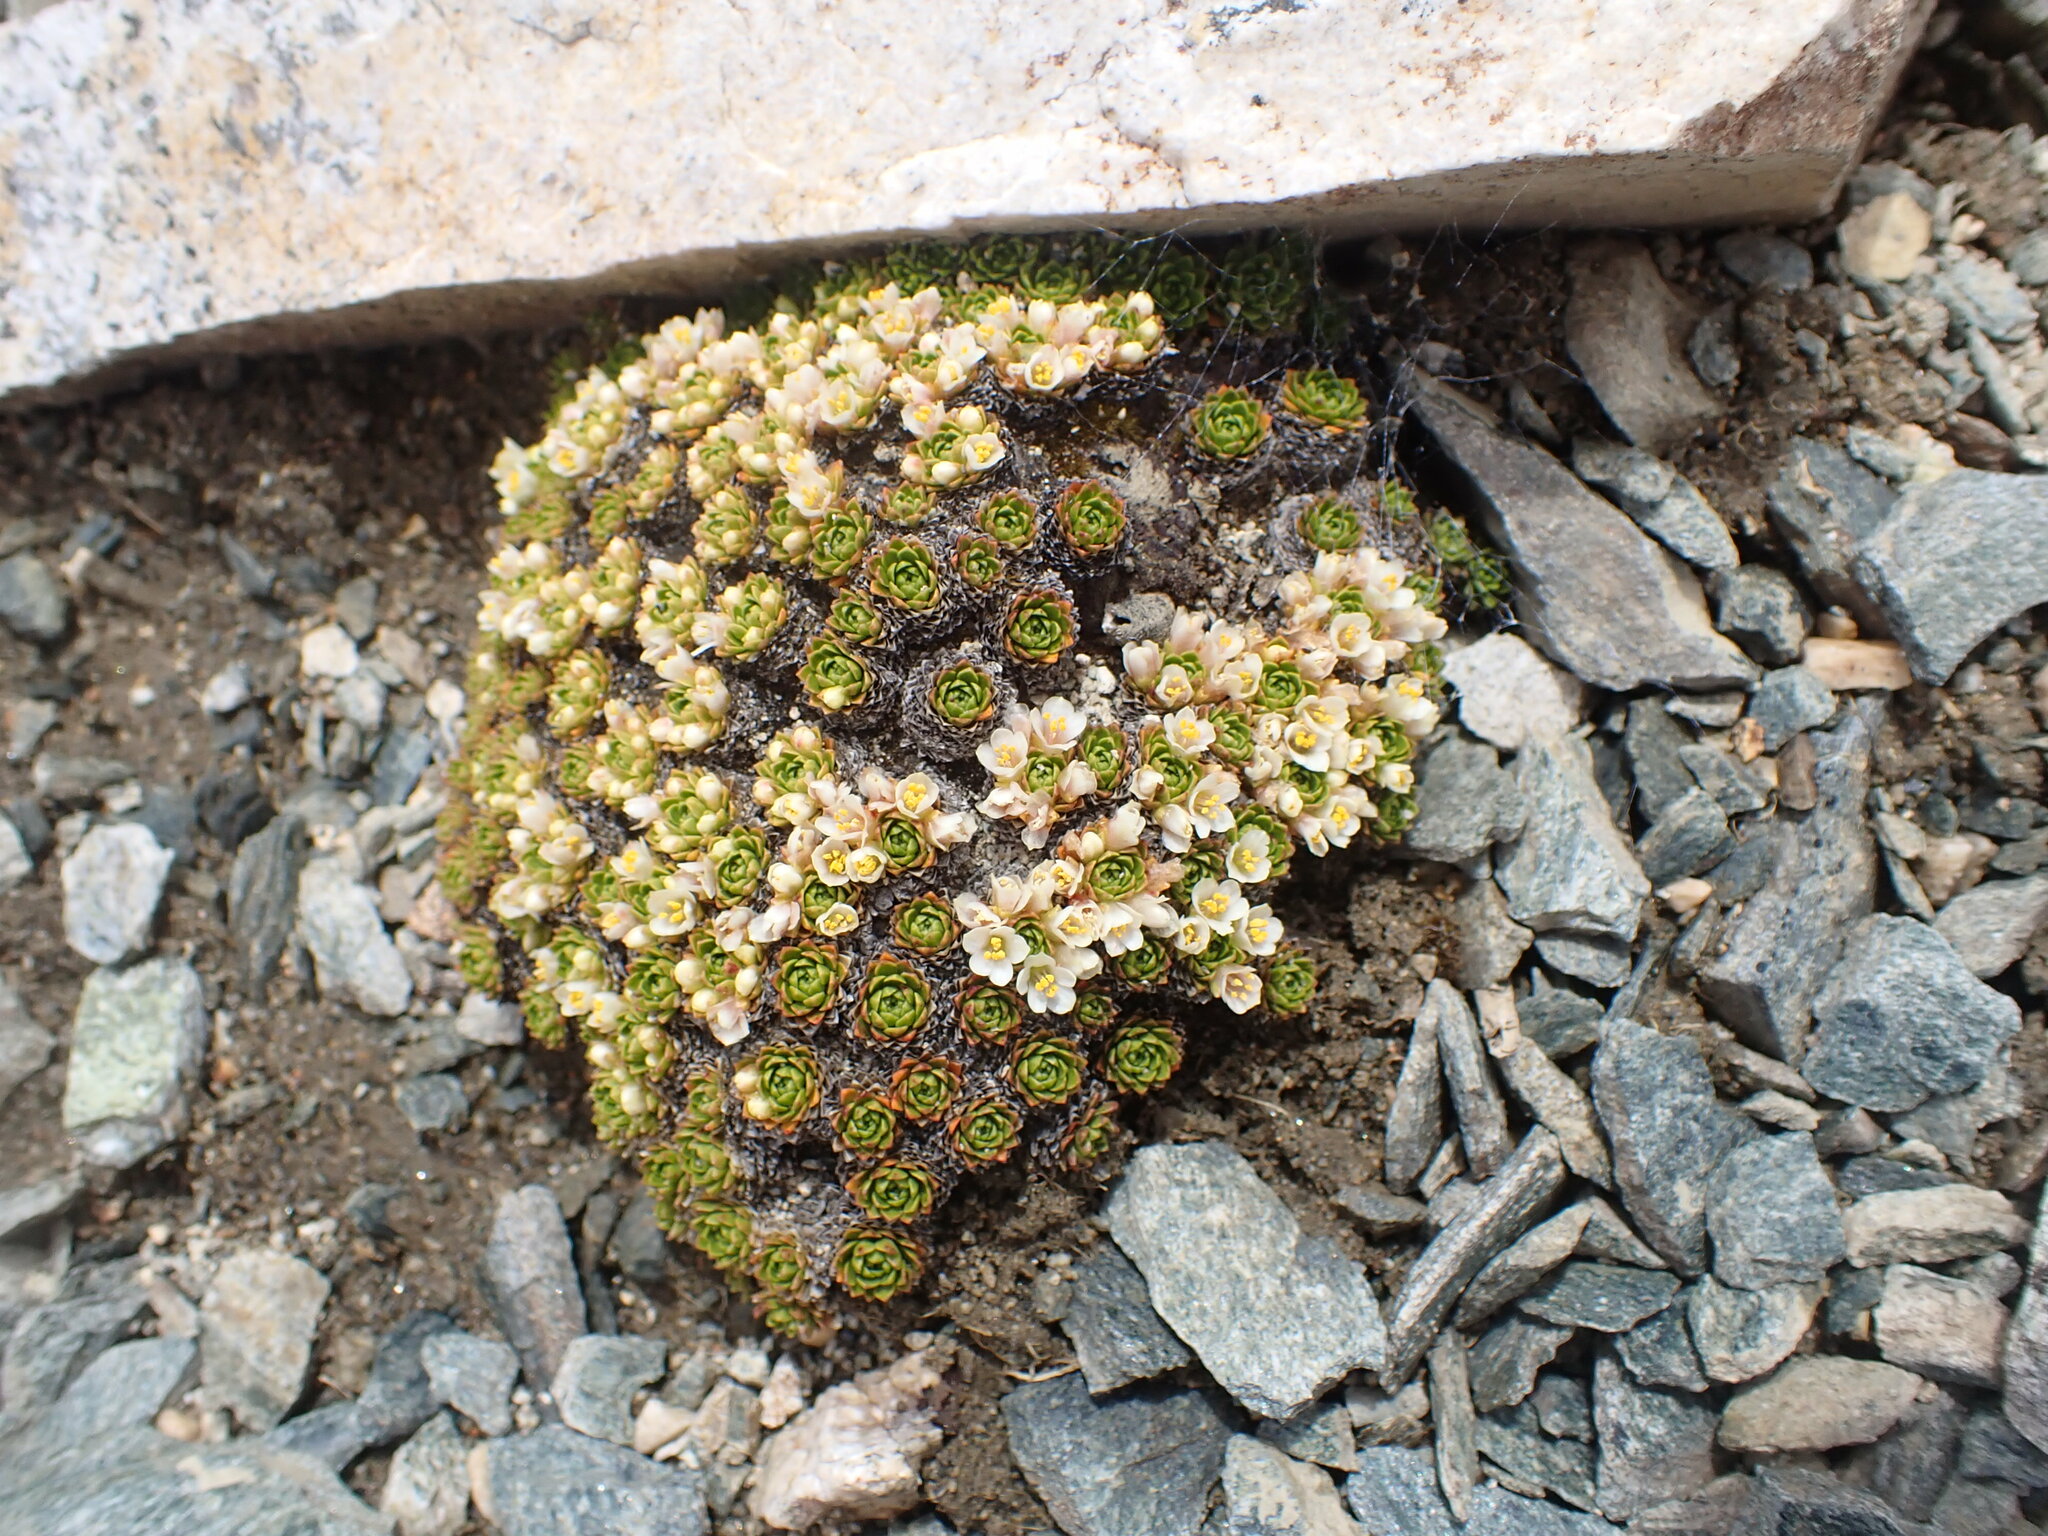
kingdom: Plantae
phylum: Tracheophyta
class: Magnoliopsida
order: Caryophyllales
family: Montiaceae
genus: Hectorella
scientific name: Hectorella caespitosa
